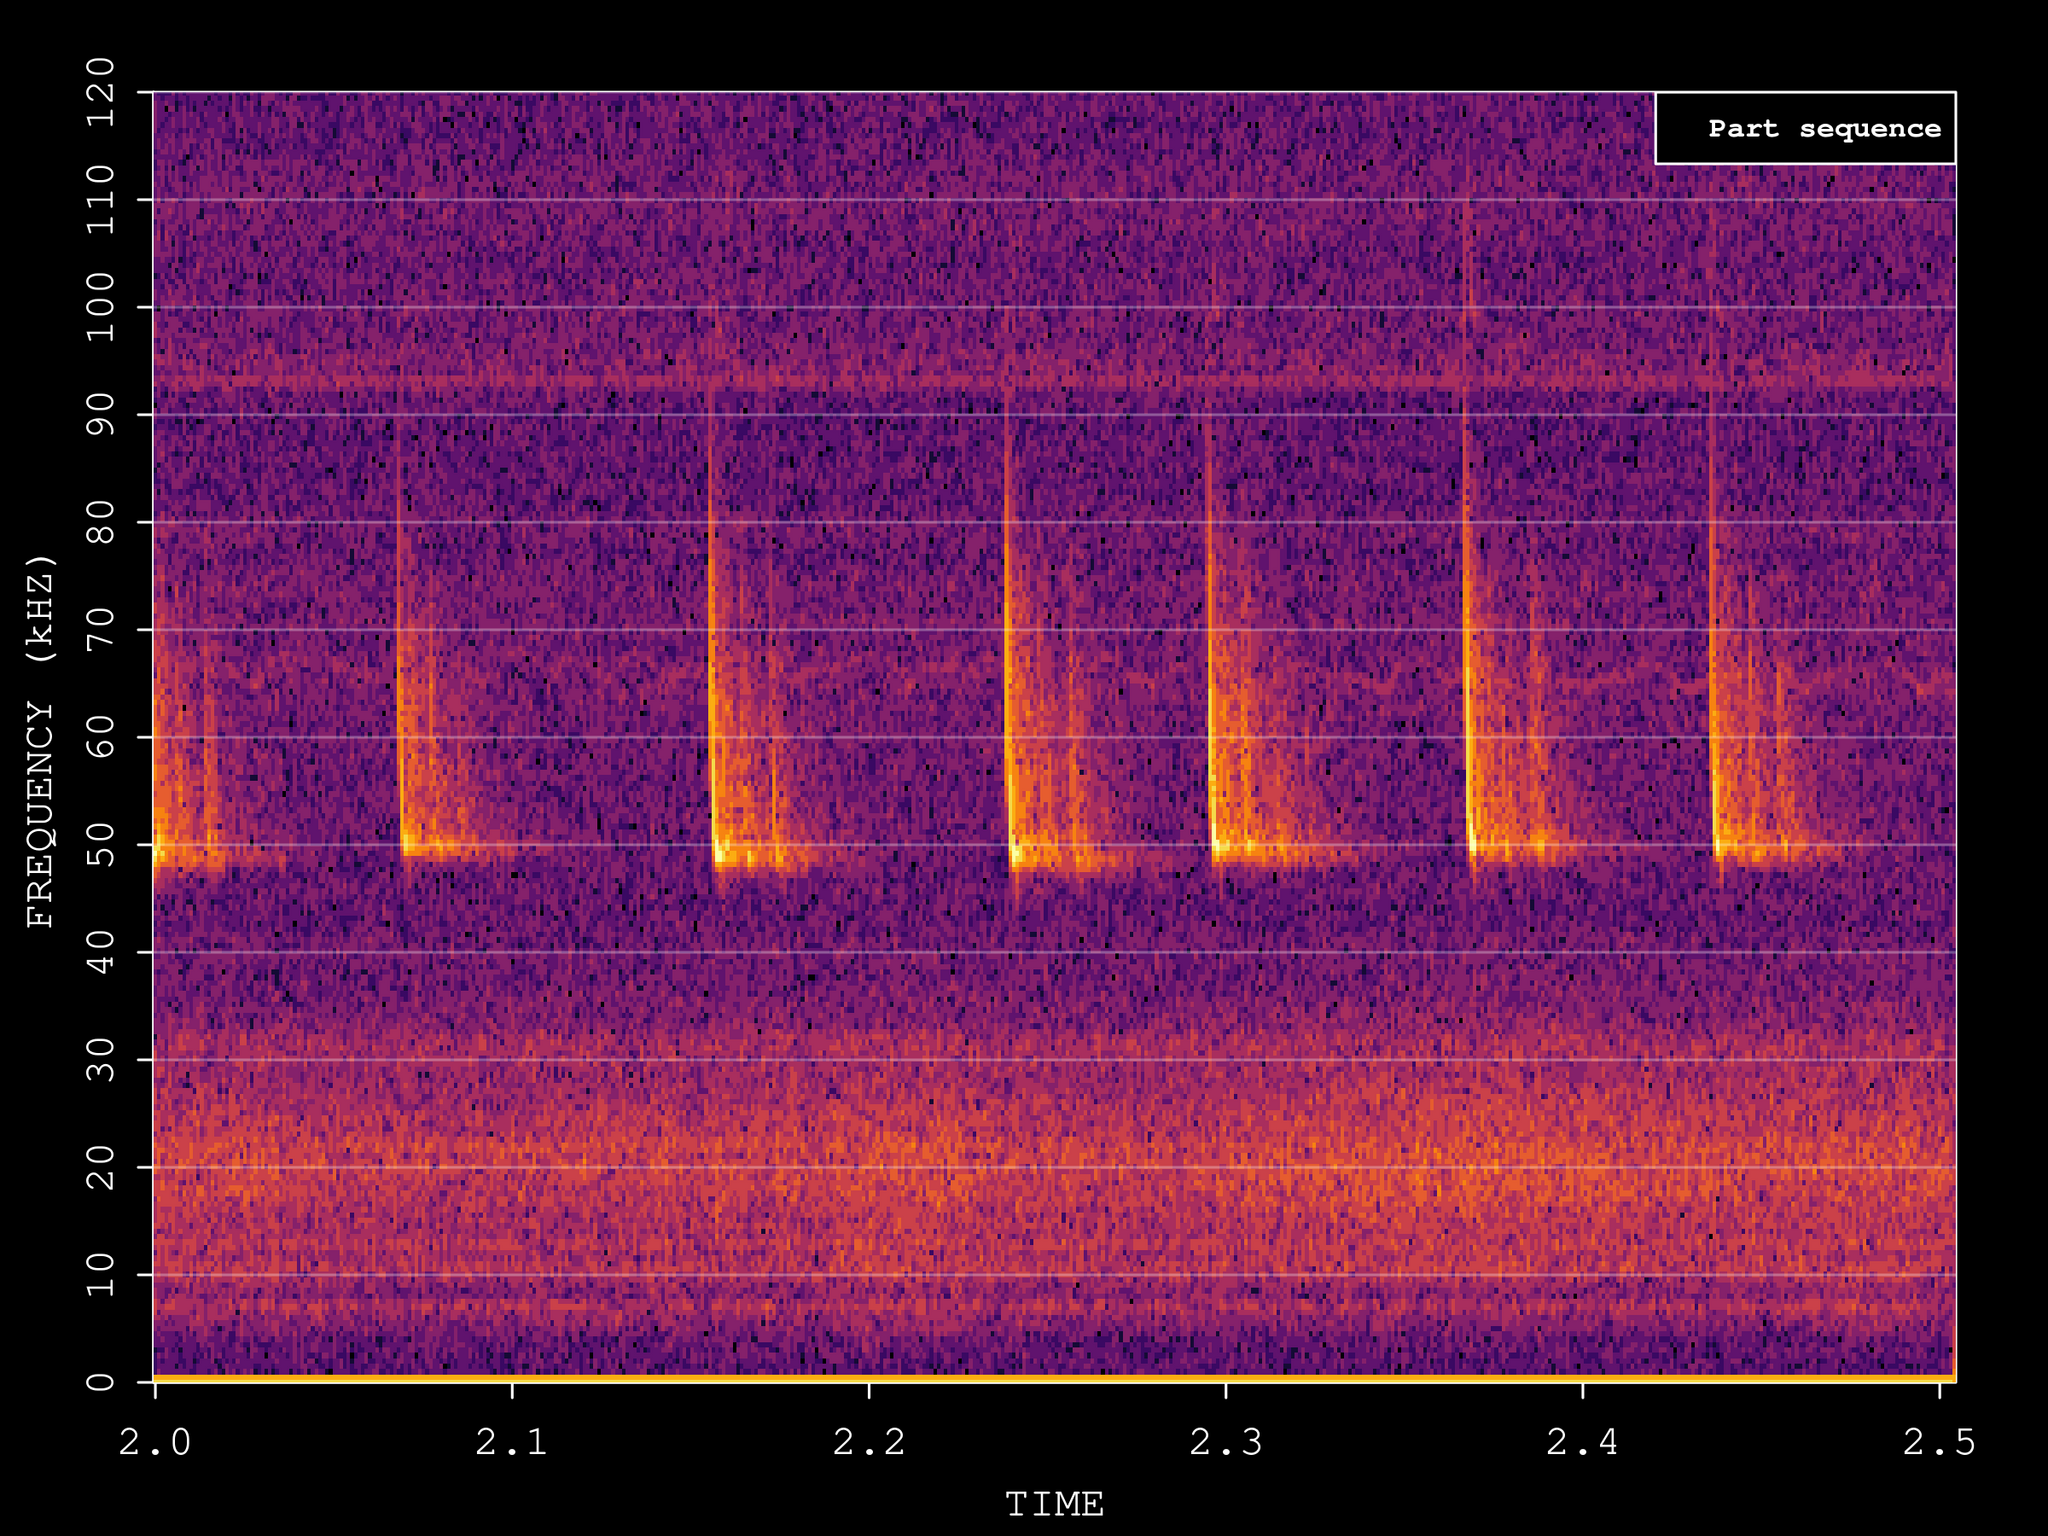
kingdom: Animalia
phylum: Chordata
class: Mammalia
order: Chiroptera
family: Vespertilionidae
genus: Pipistrellus
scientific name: Pipistrellus pipistrellus
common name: Common pipistrelle
